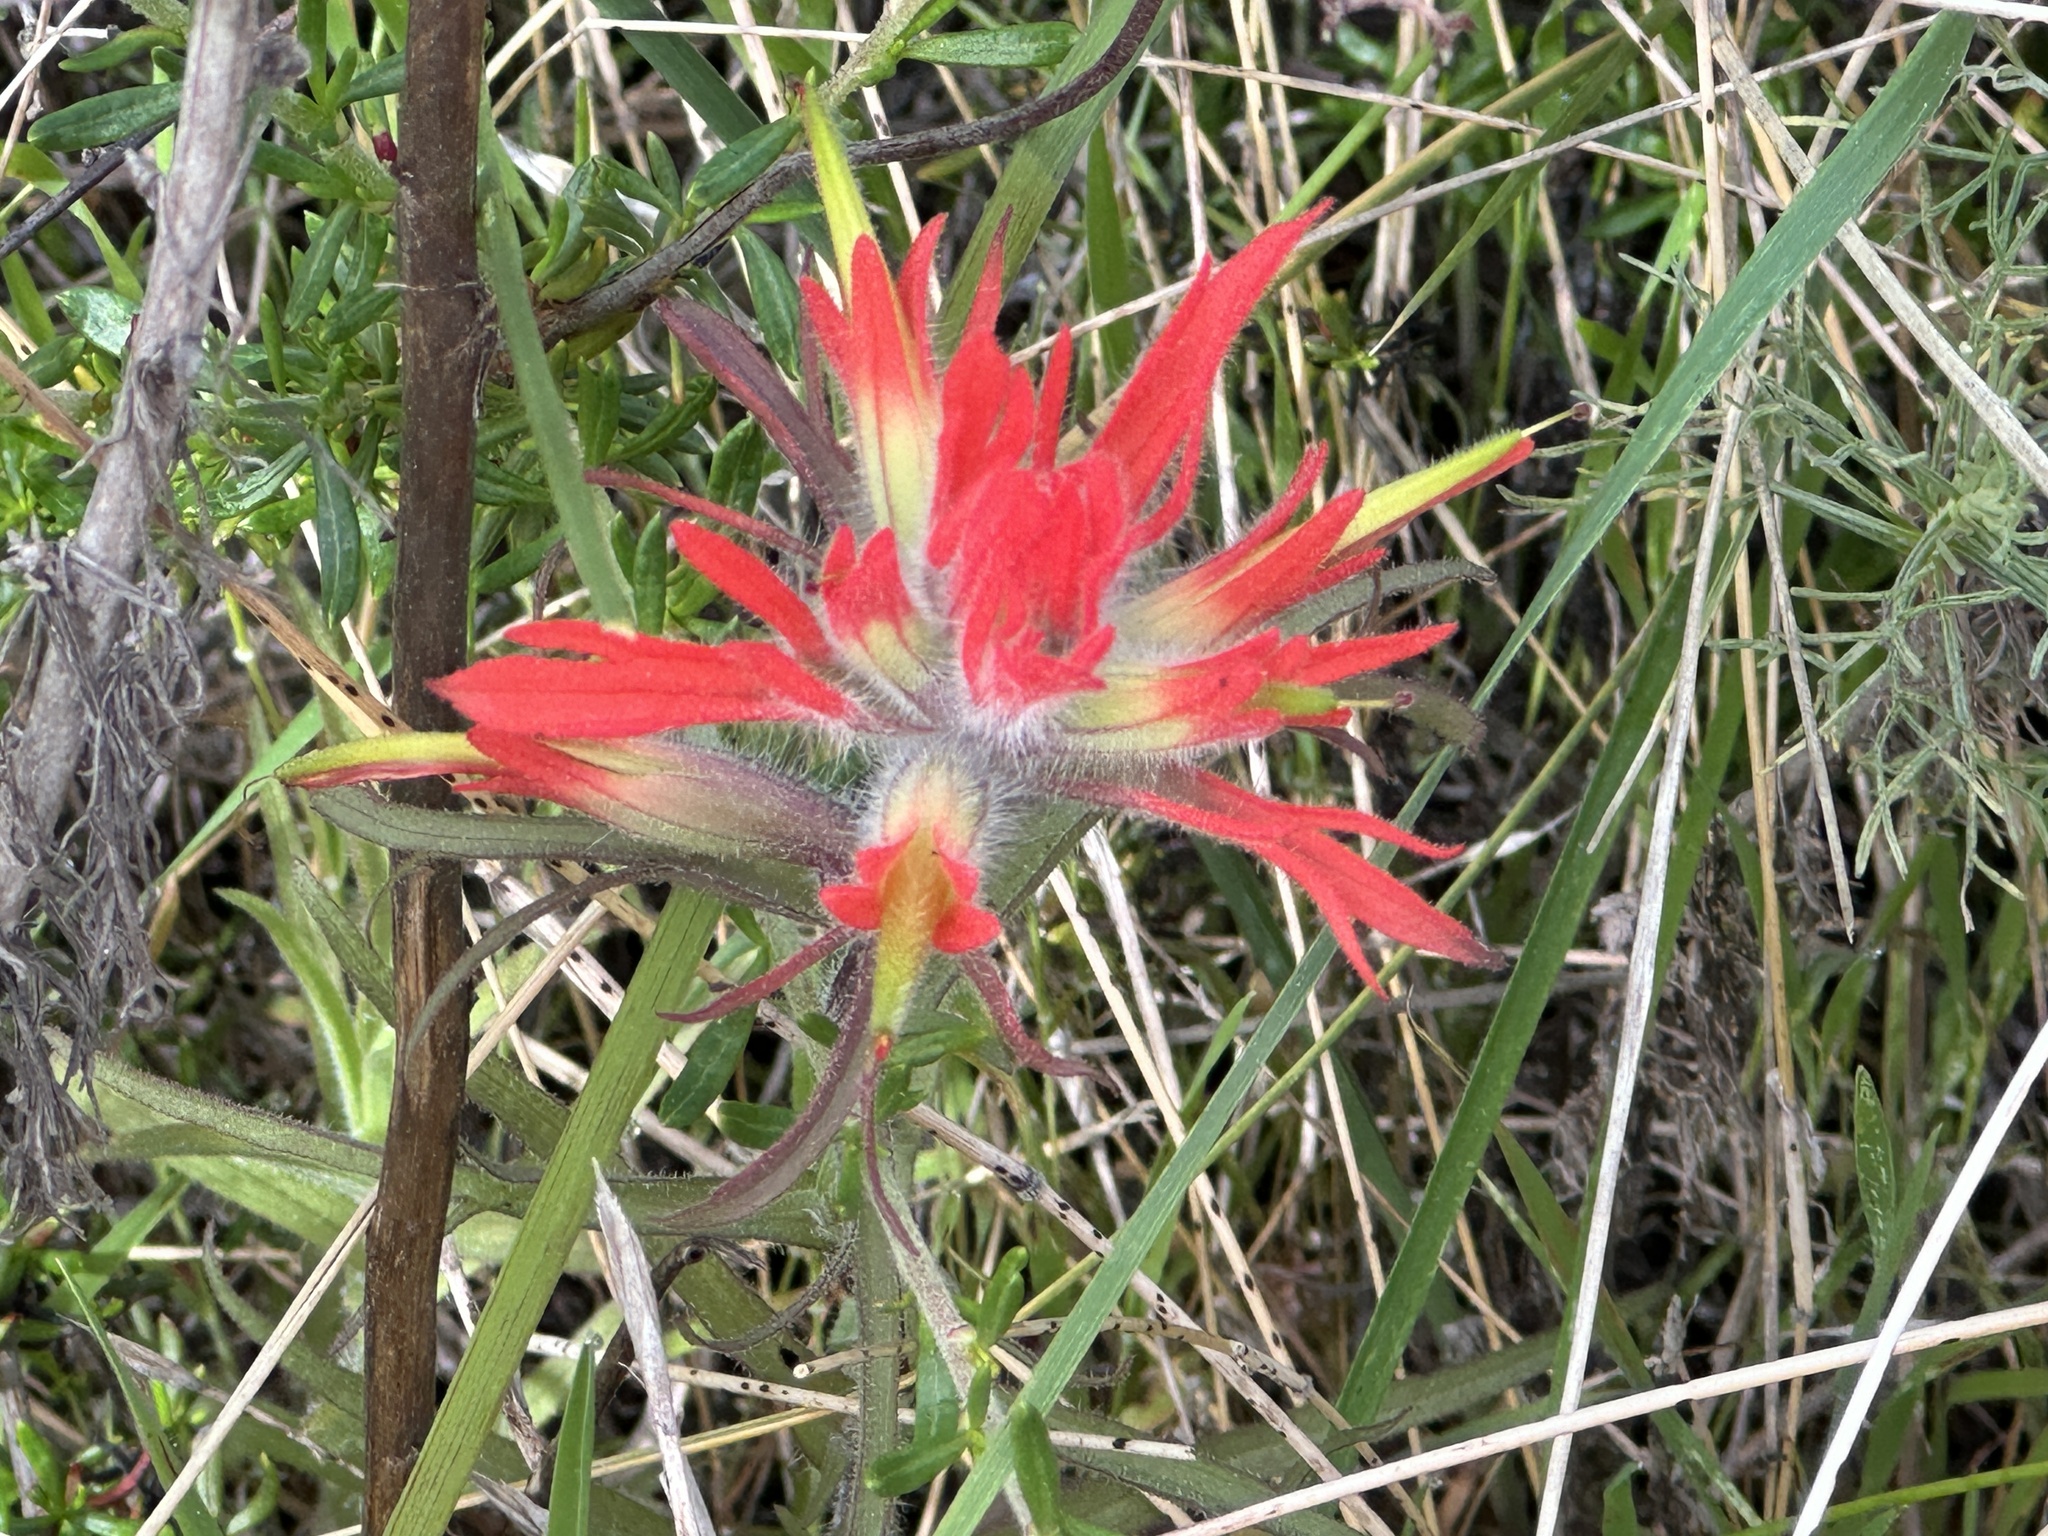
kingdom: Plantae
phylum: Tracheophyta
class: Magnoliopsida
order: Lamiales
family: Orobanchaceae
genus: Castilleja
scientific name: Castilleja affinis
